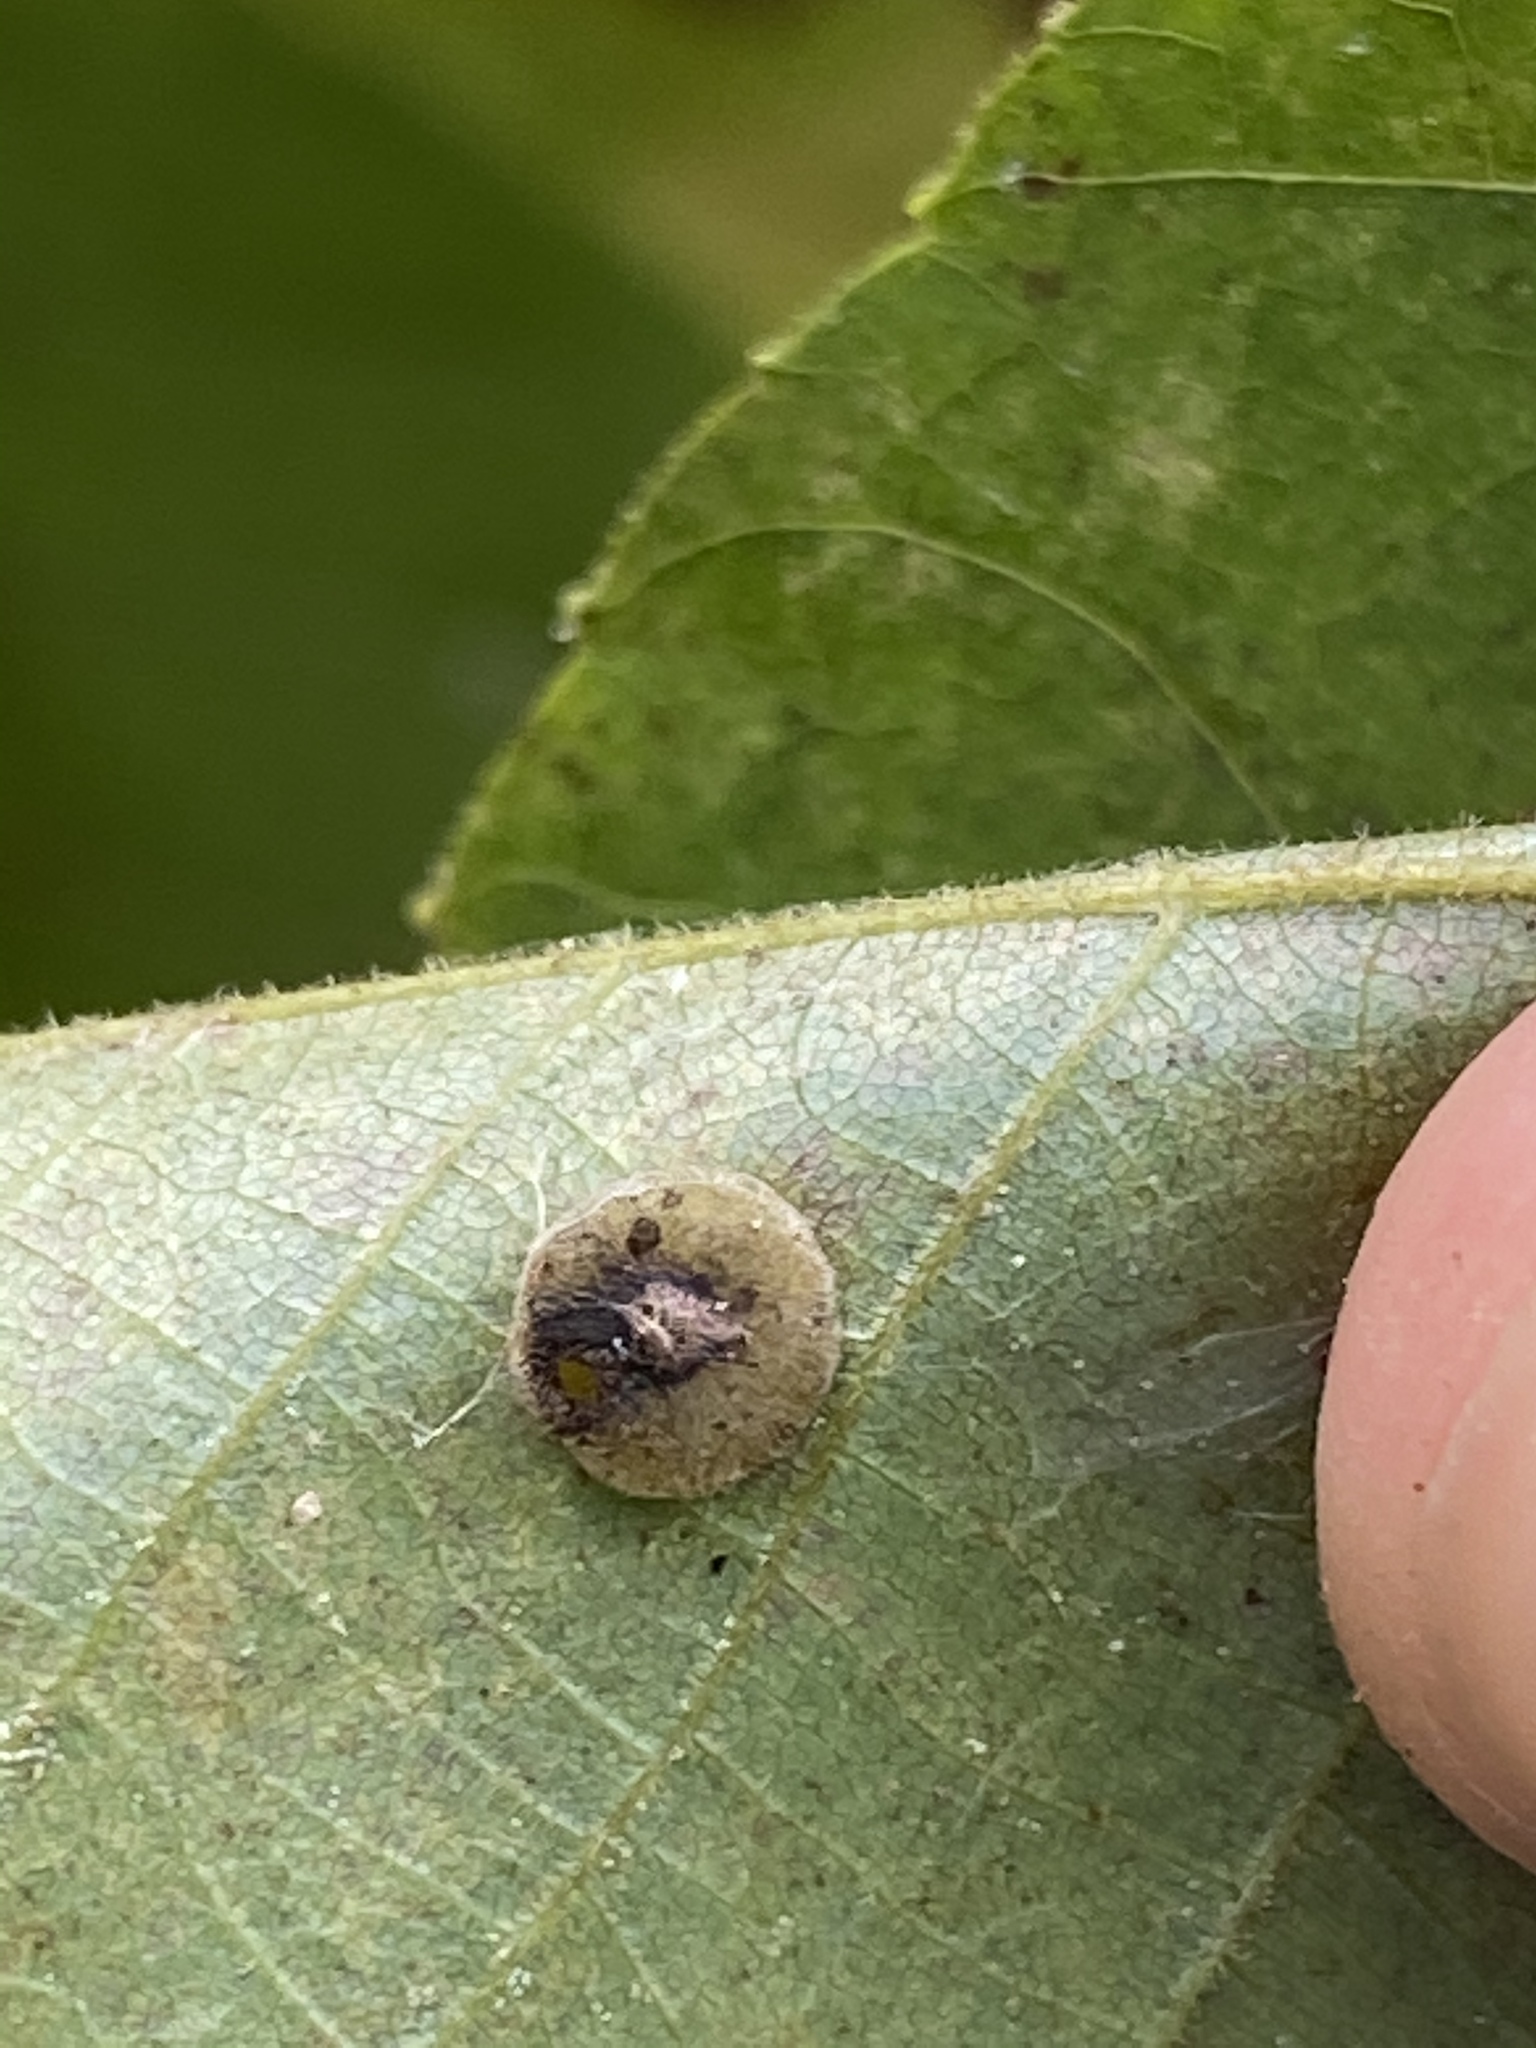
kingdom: Animalia
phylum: Arthropoda
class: Insecta
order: Diptera
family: Cecidomyiidae
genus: Caryomyia
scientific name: Caryomyia
